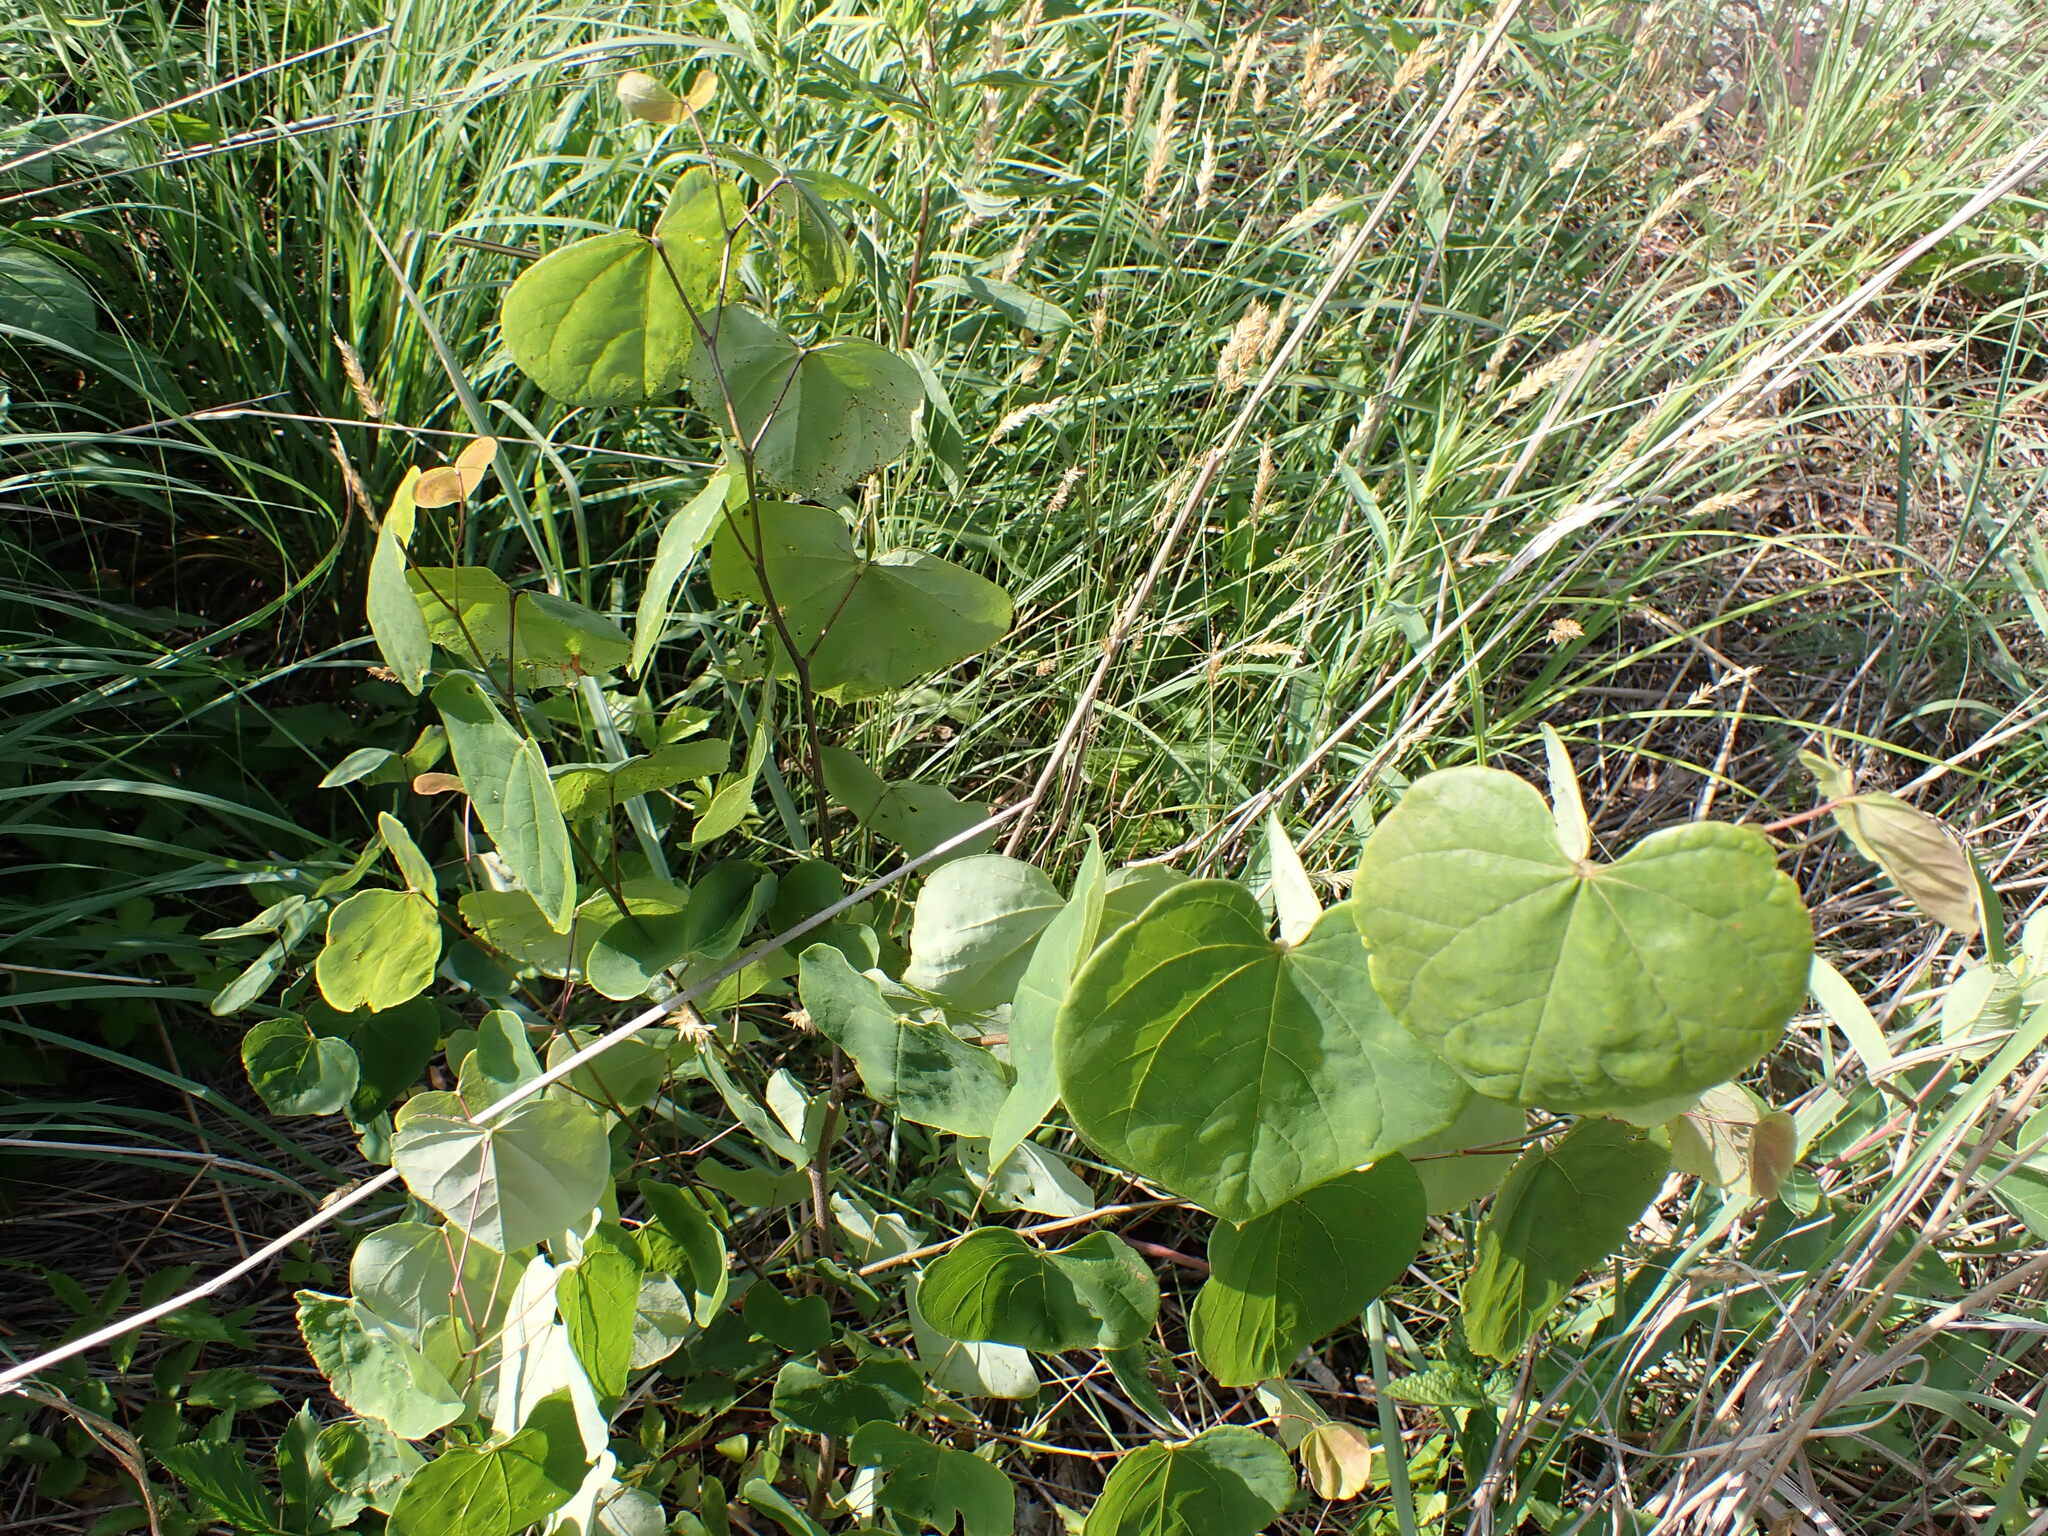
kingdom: Plantae
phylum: Tracheophyta
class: Magnoliopsida
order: Fabales
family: Fabaceae
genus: Cercis
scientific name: Cercis canadensis
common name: Eastern redbud
